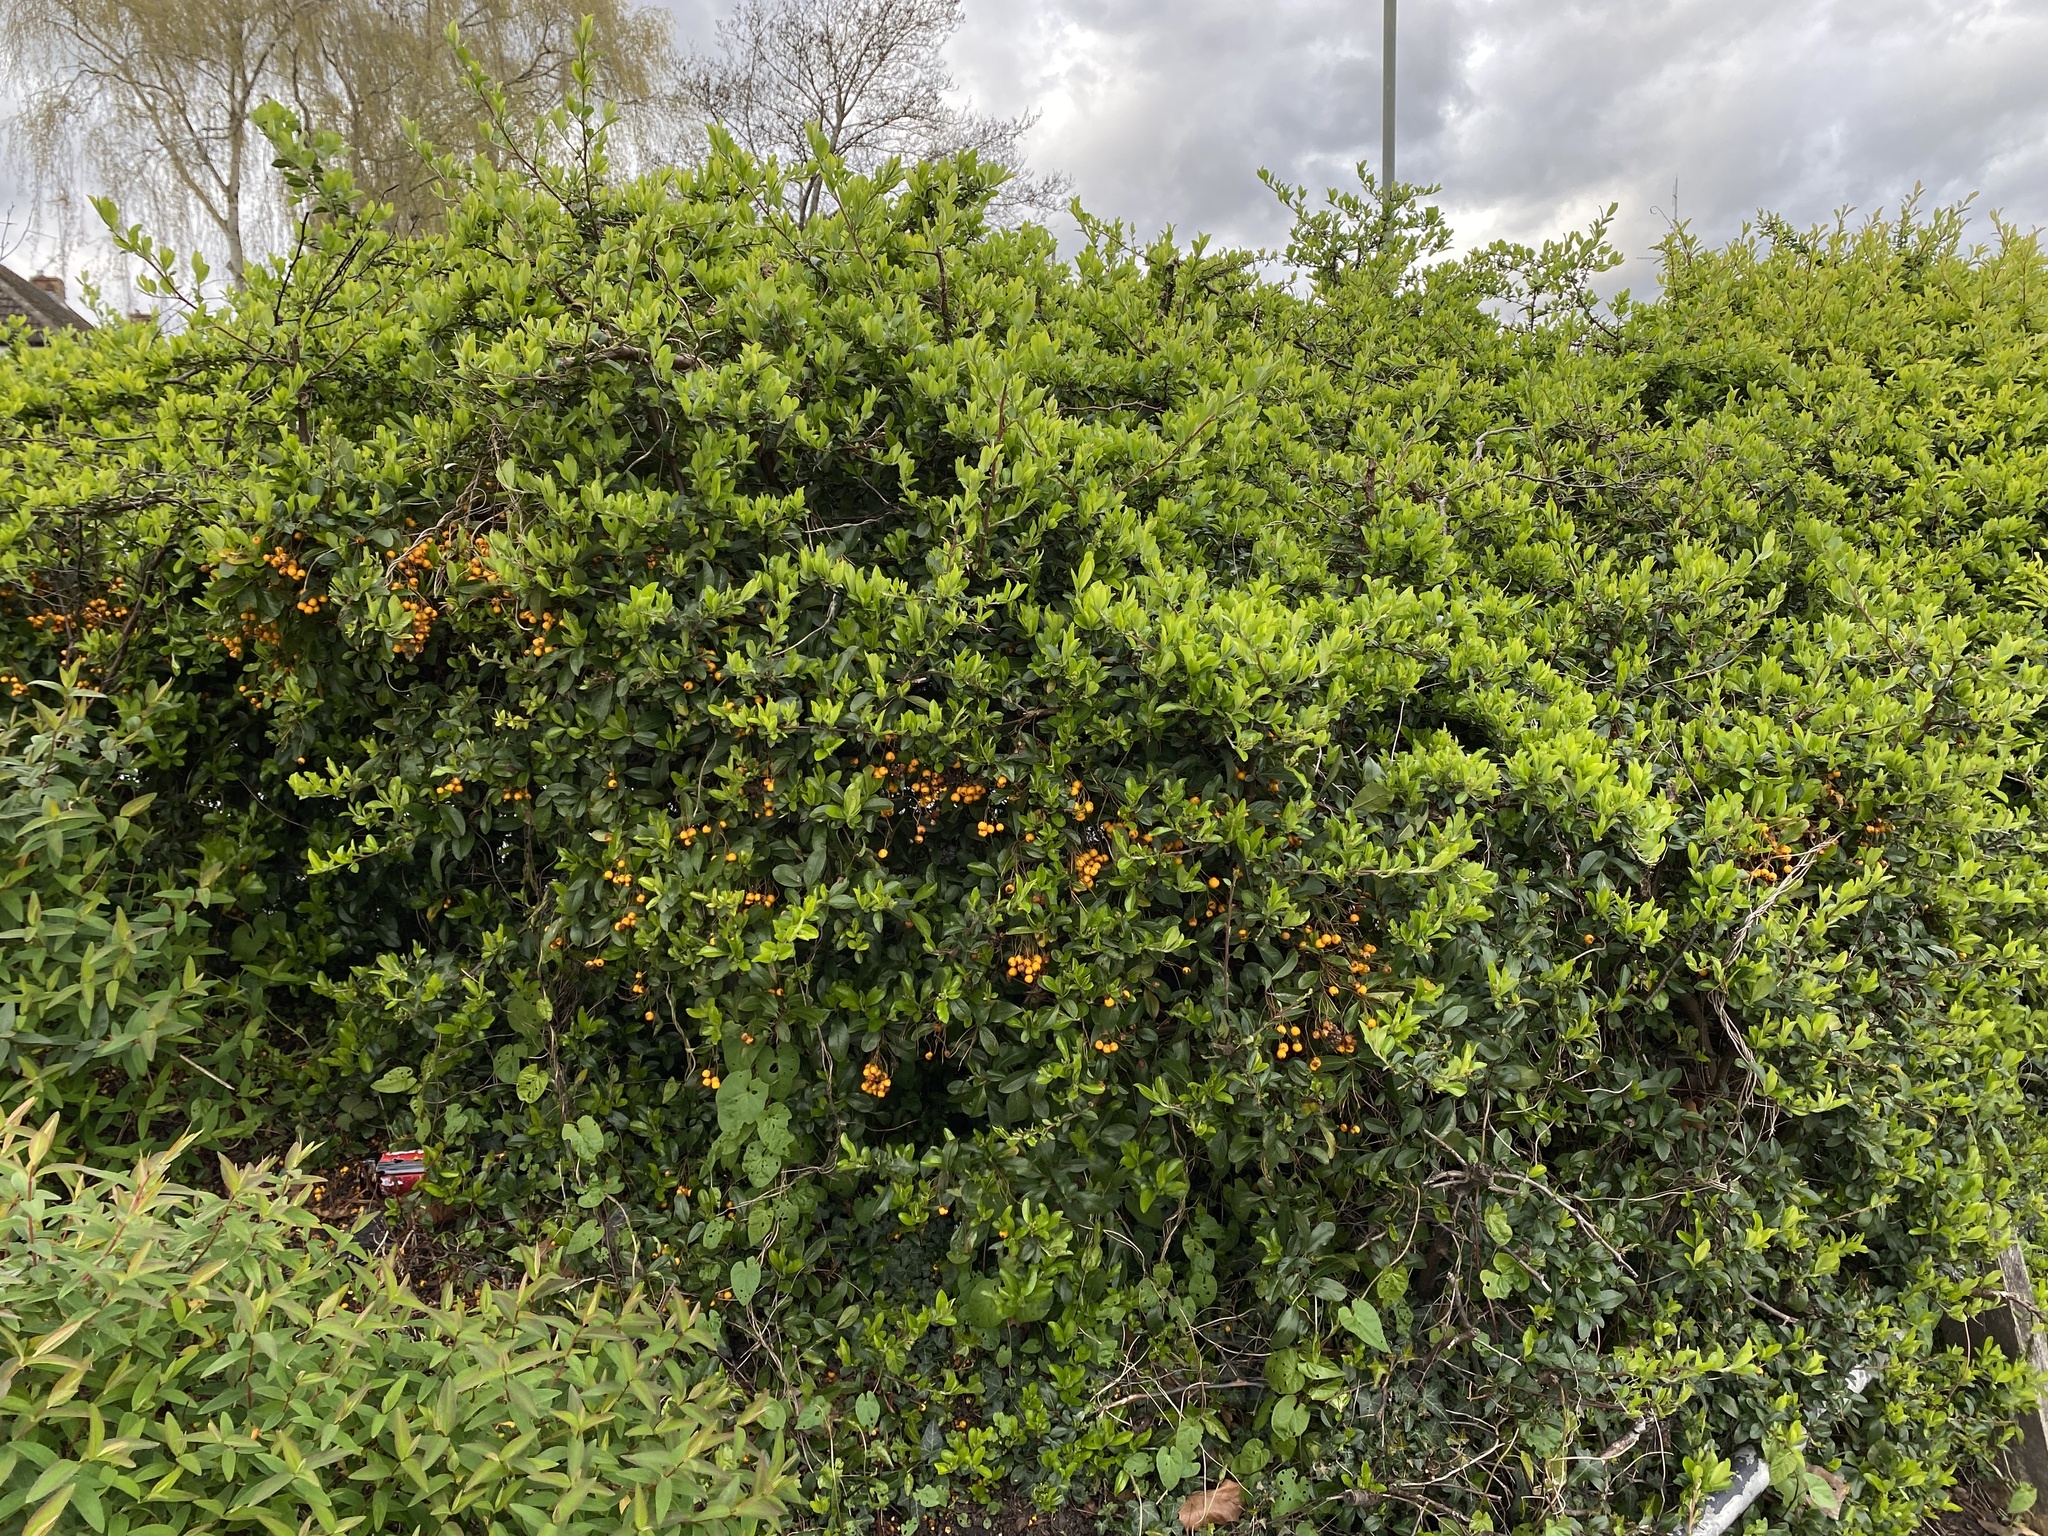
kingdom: Plantae
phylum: Tracheophyta
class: Magnoliopsida
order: Rosales
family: Rosaceae
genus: Pyracantha
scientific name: Pyracantha coccinea
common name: Firethorn
